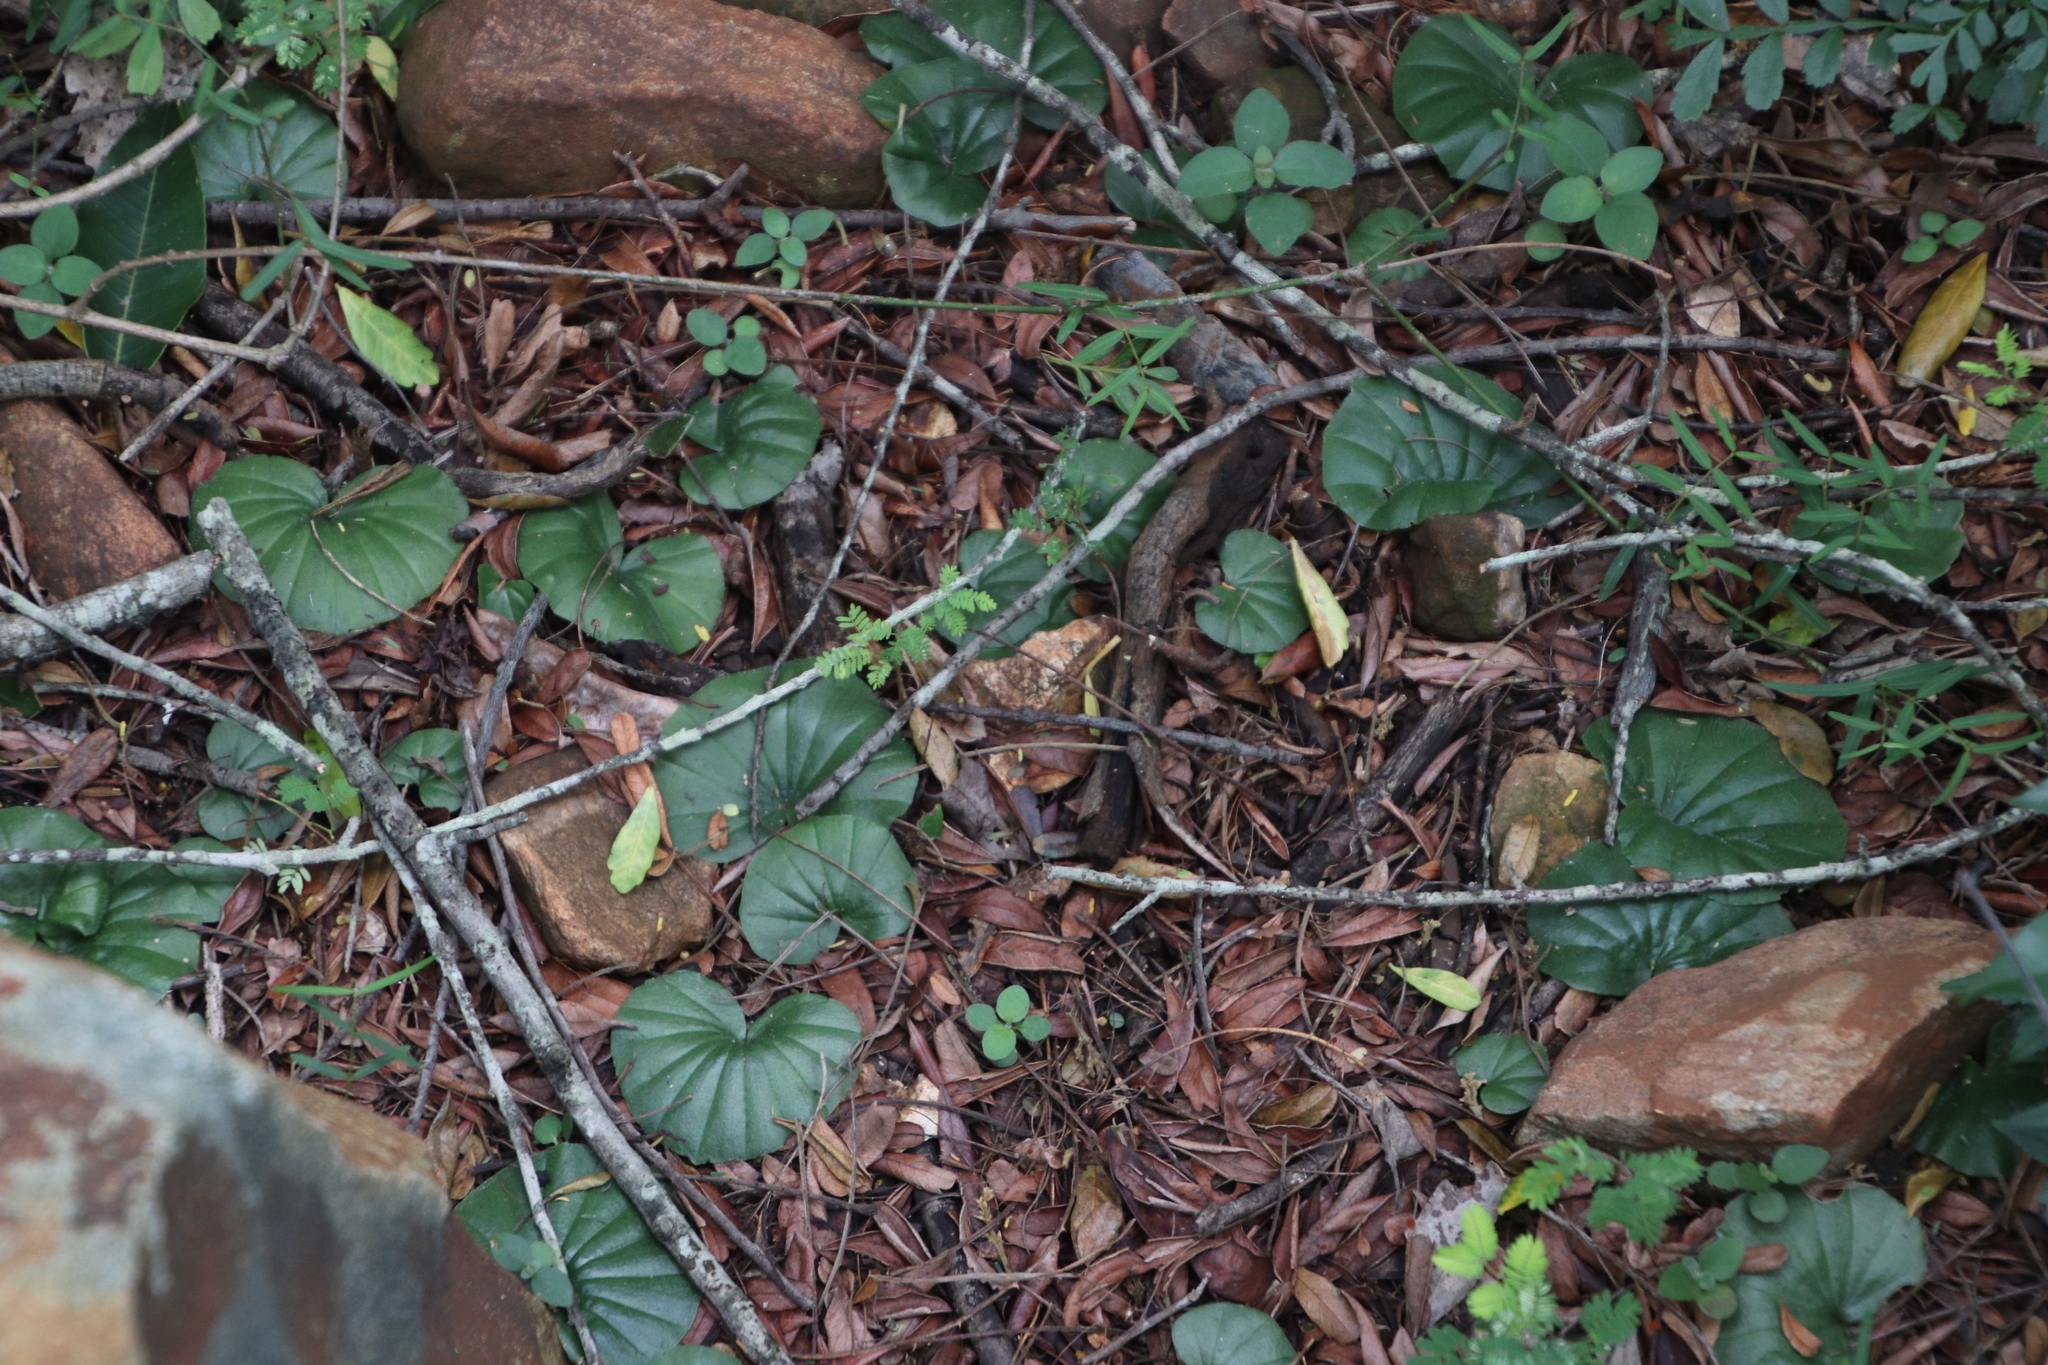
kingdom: Plantae
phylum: Tracheophyta
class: Liliopsida
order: Asparagales
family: Orchidaceae
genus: Nervilia
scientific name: Nervilia simplex
